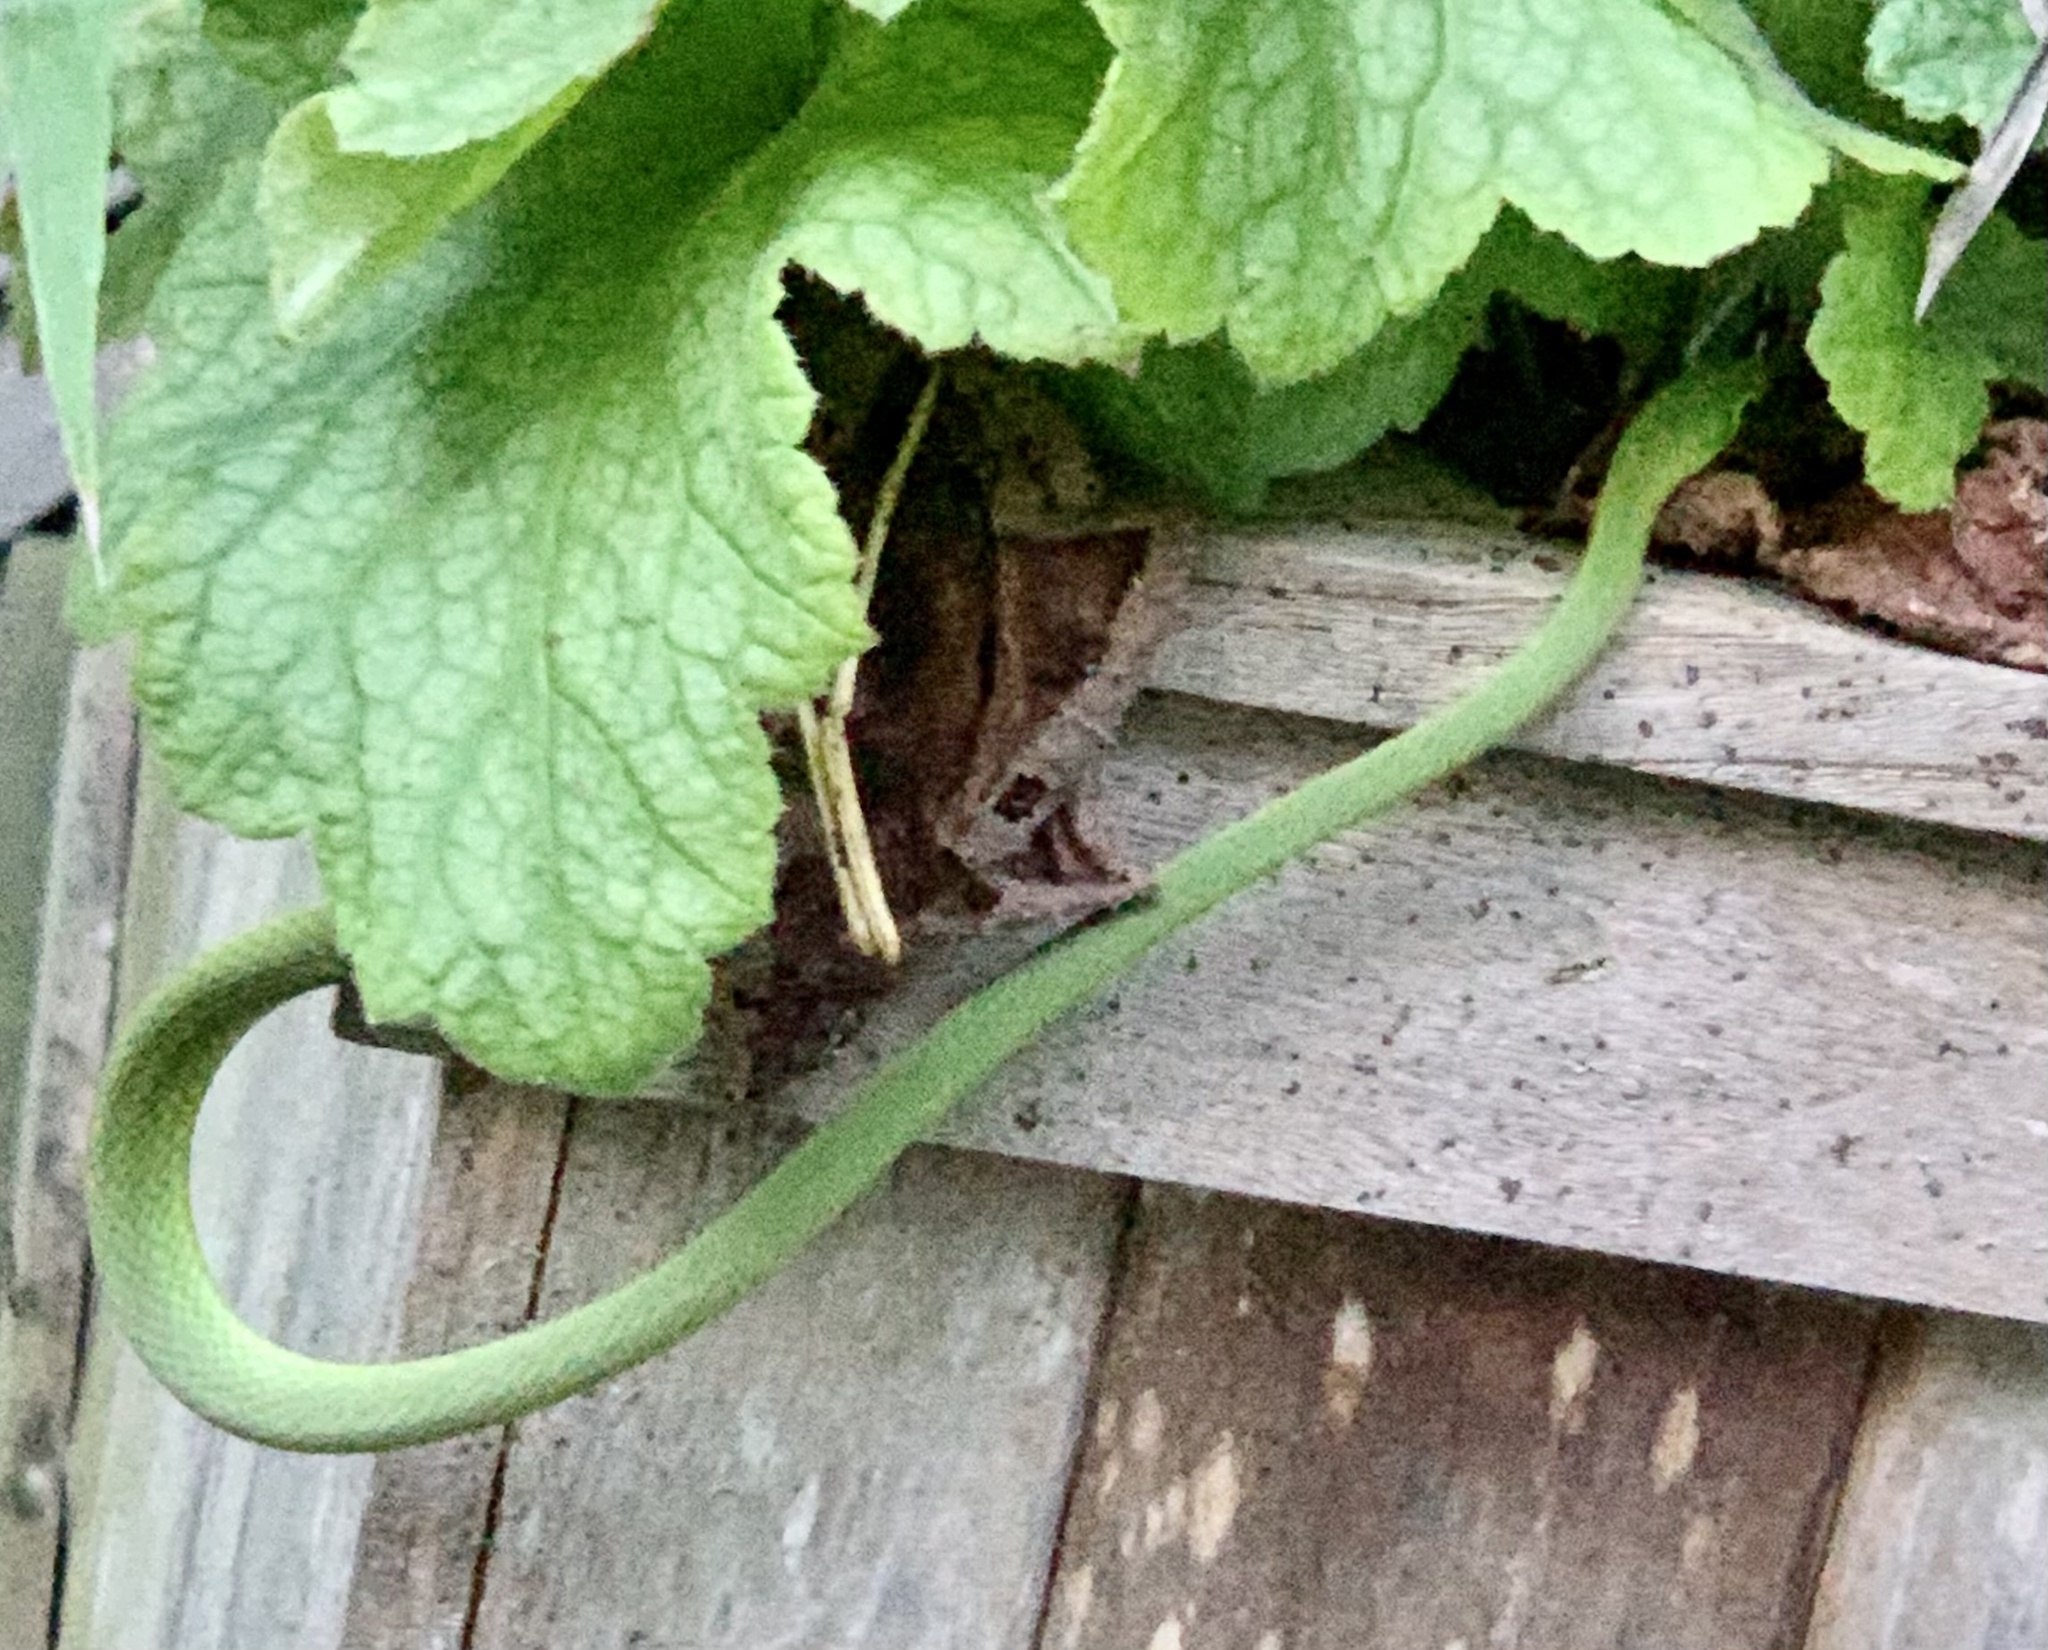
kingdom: Animalia
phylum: Chordata
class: Squamata
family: Colubridae
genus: Opheodrys
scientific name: Opheodrys aestivus
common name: Rough greensnake
